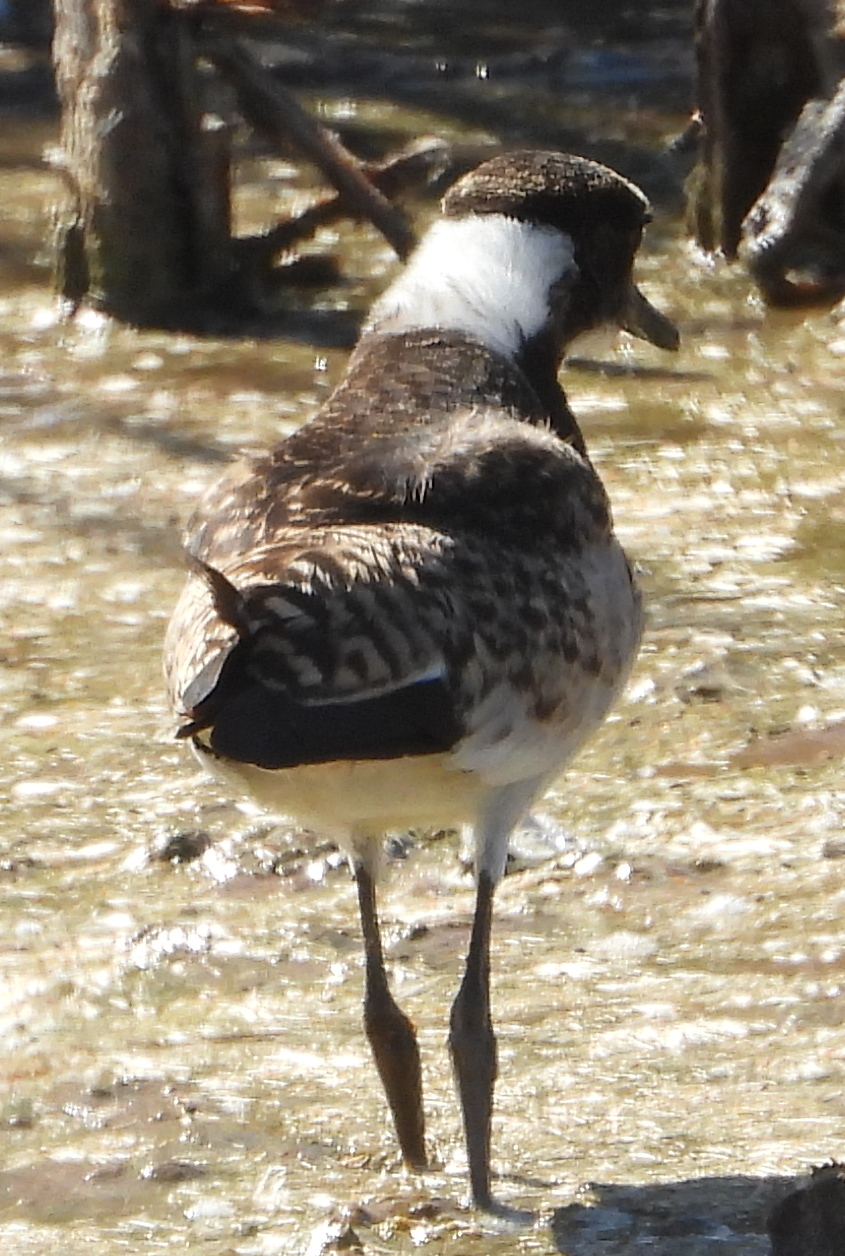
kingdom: Animalia
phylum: Chordata
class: Aves
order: Charadriiformes
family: Charadriidae
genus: Vanellus
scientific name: Vanellus armatus
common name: Blacksmith lapwing
